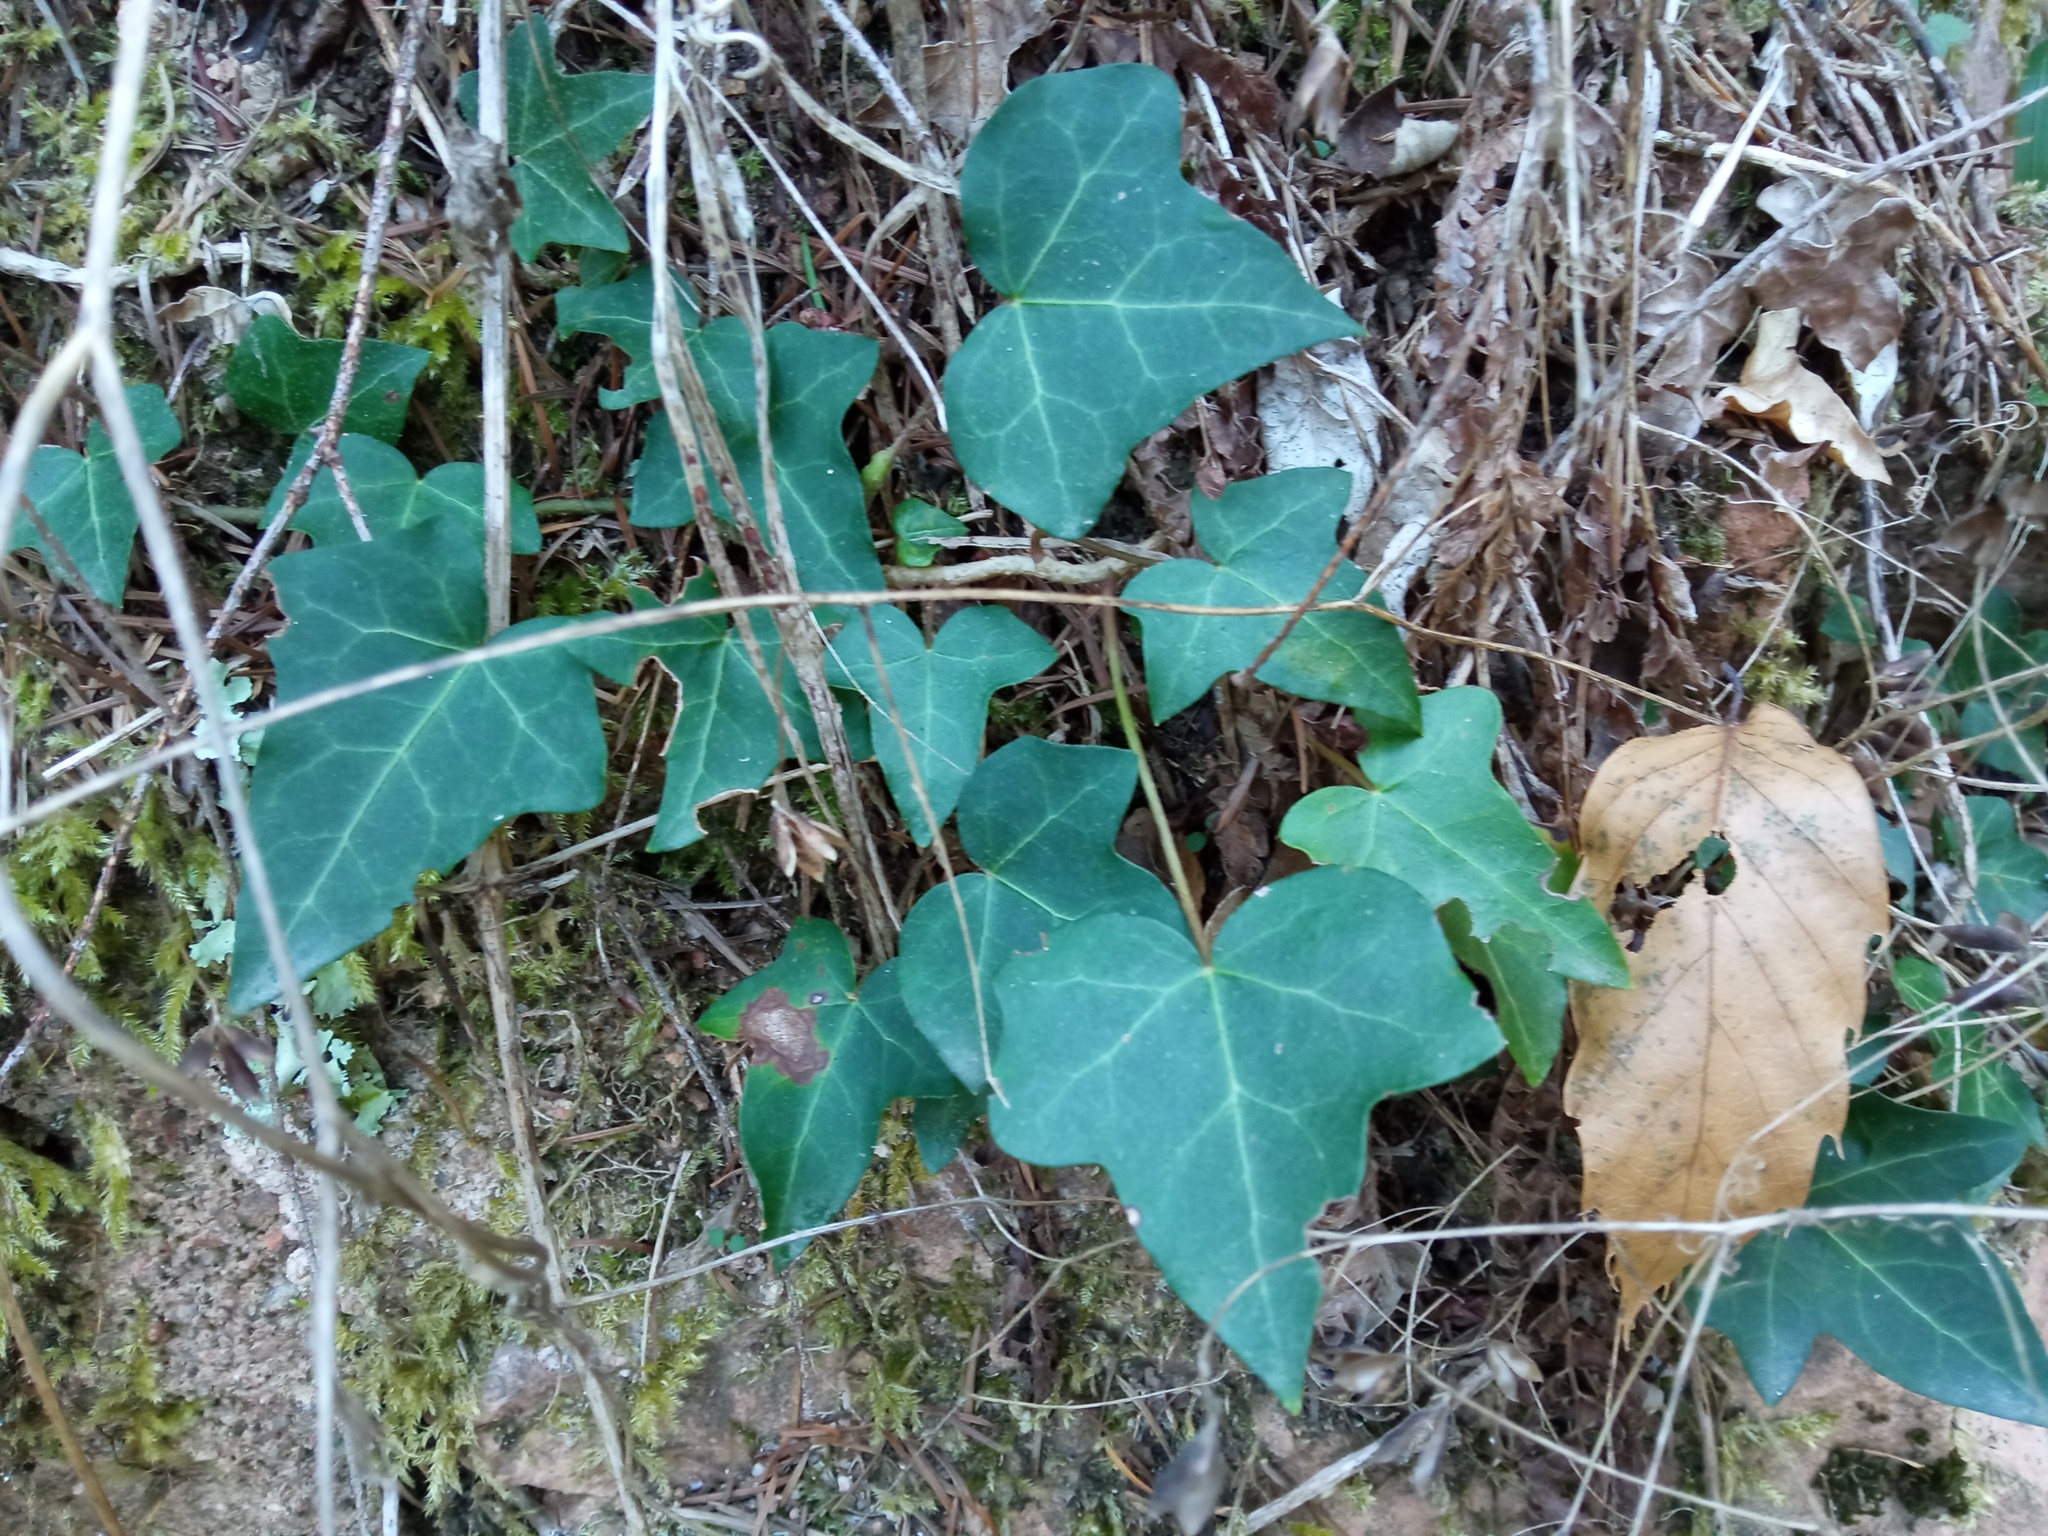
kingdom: Plantae
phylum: Tracheophyta
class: Magnoliopsida
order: Apiales
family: Araliaceae
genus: Hedera
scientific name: Hedera helix
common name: Ivy
